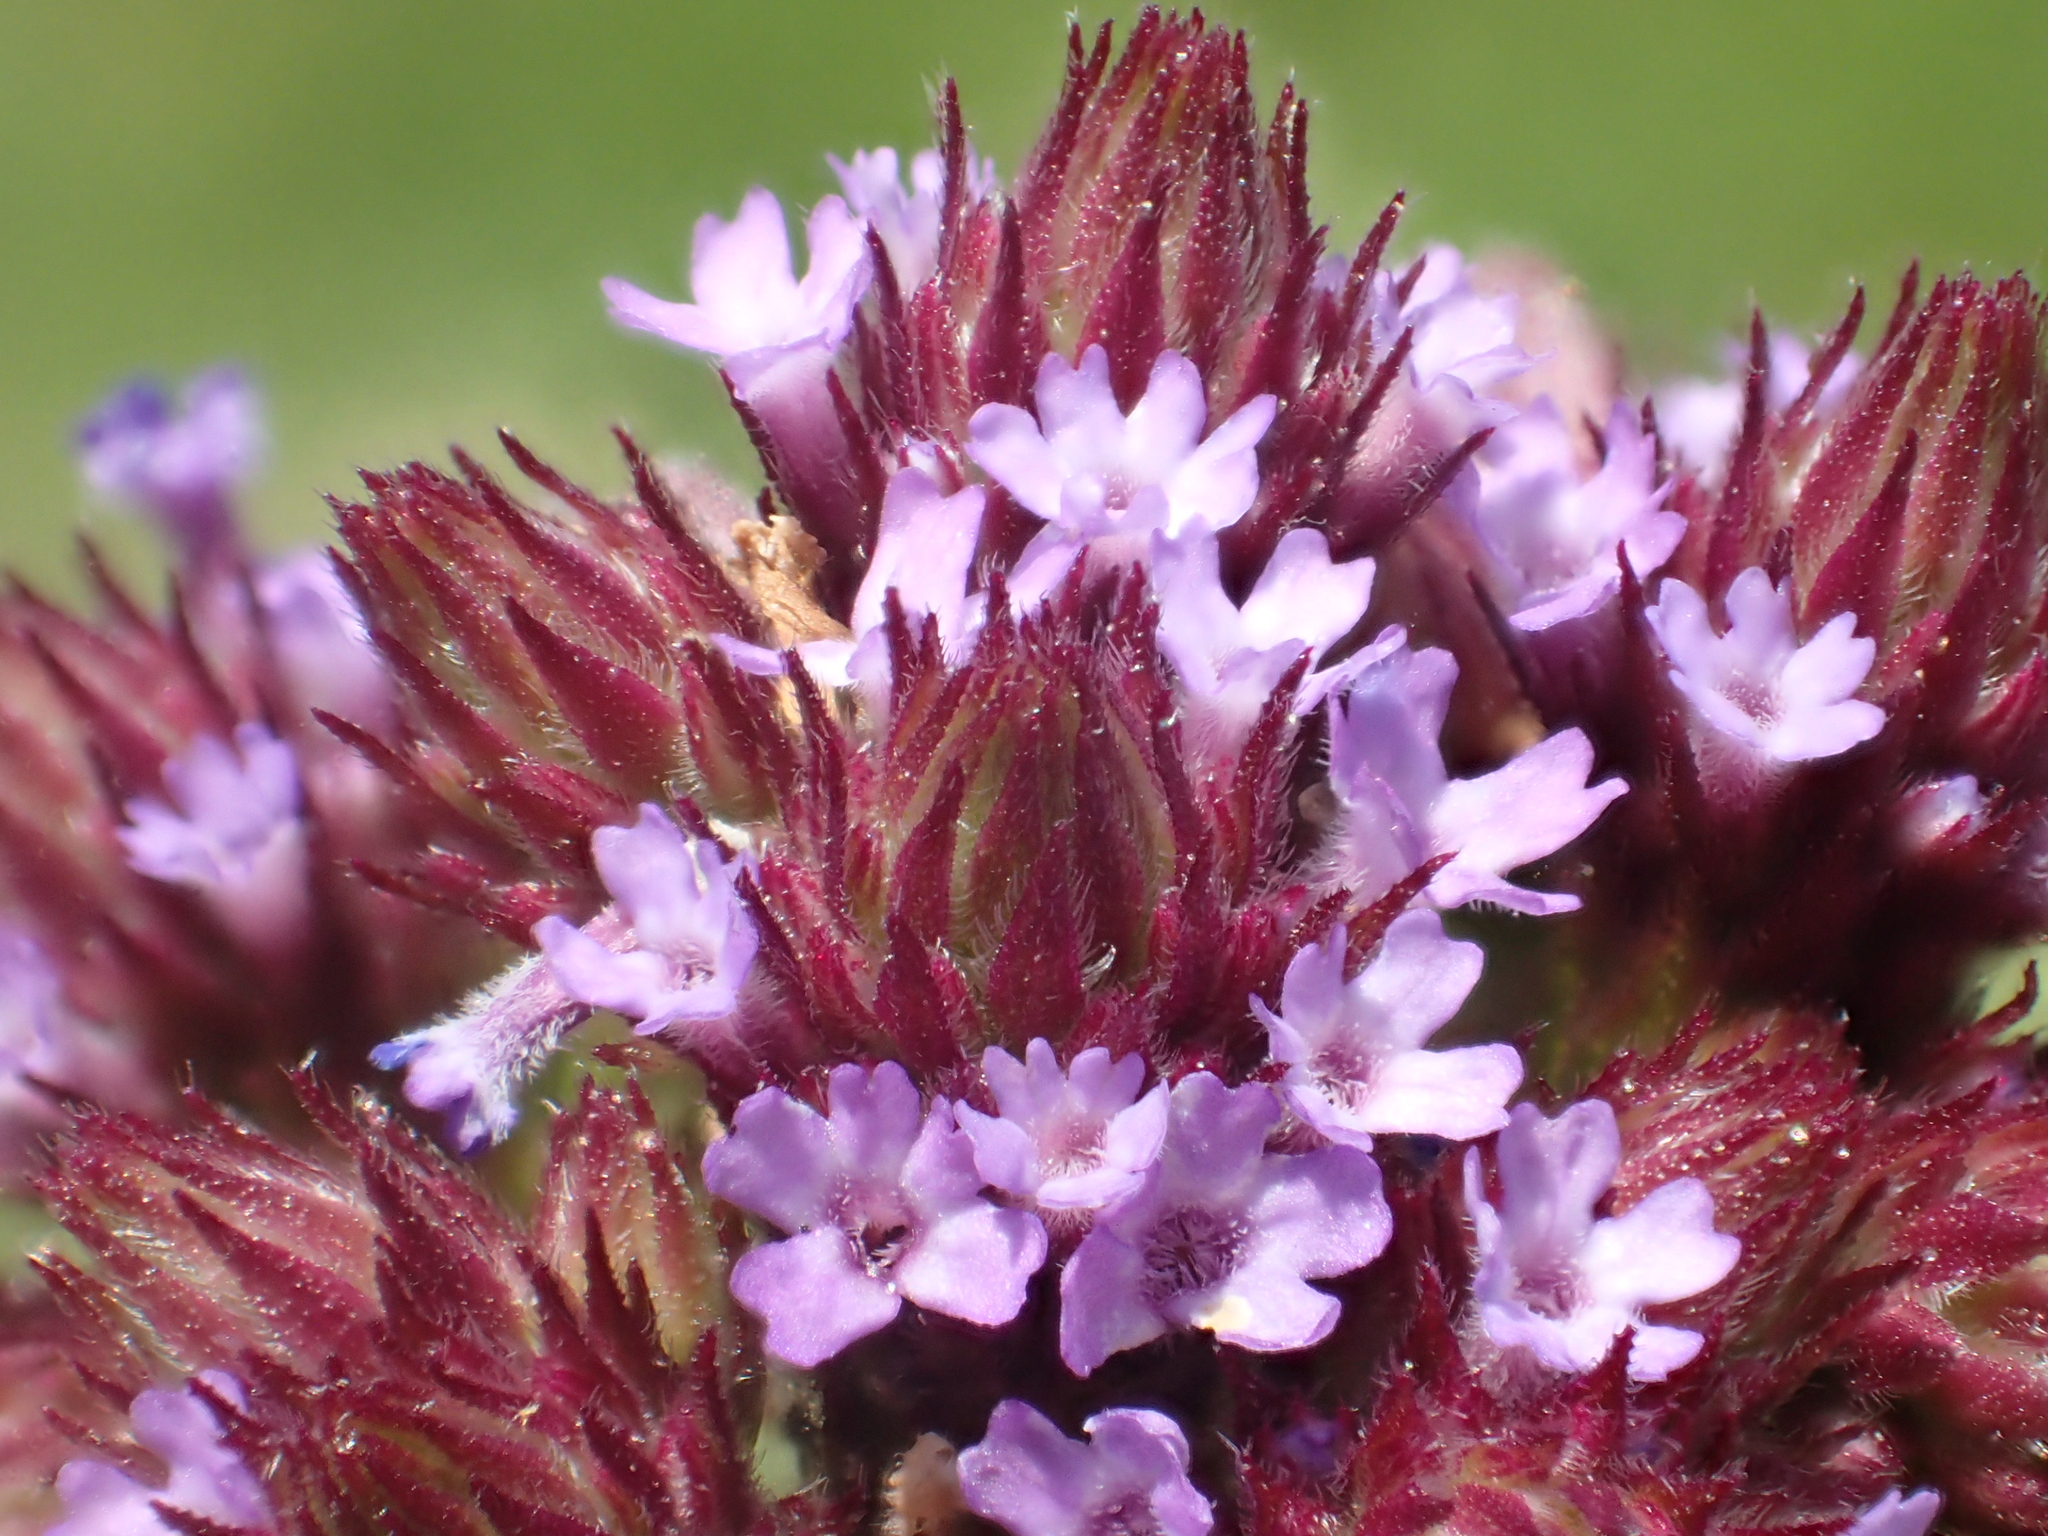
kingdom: Plantae
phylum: Tracheophyta
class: Magnoliopsida
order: Lamiales
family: Verbenaceae
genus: Verbena
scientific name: Verbena bonariensis
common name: Purpletop vervain
